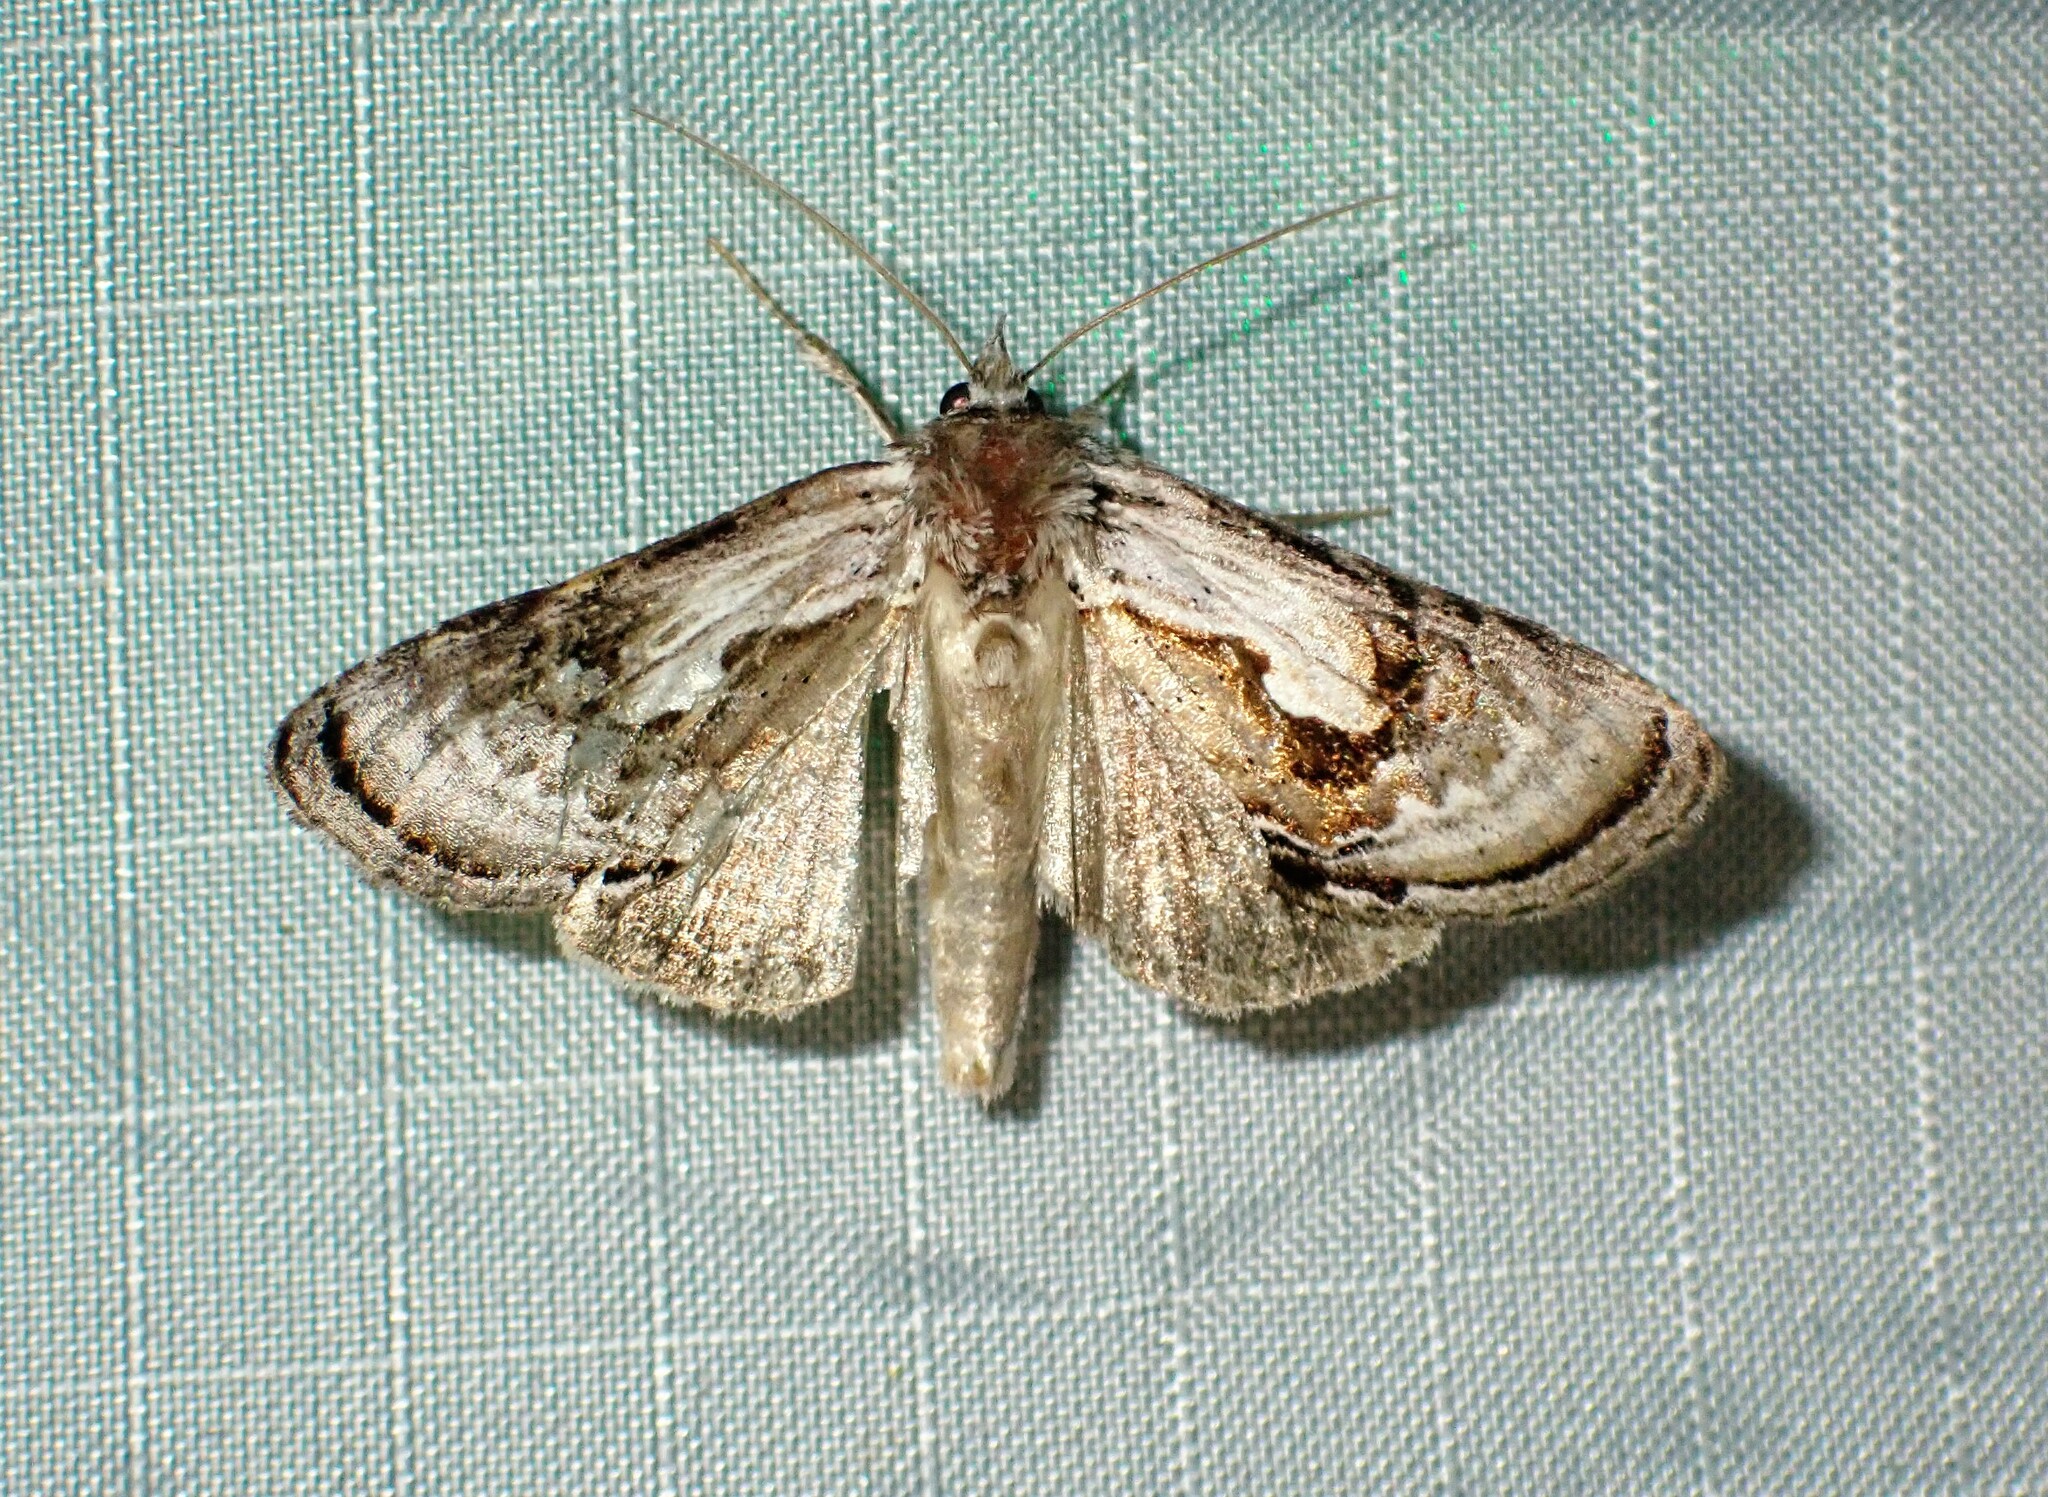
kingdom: Animalia
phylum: Arthropoda
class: Insecta
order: Lepidoptera
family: Noctuidae
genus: Chrysanympha
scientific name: Chrysanympha formosa
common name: Formosa looper moth
